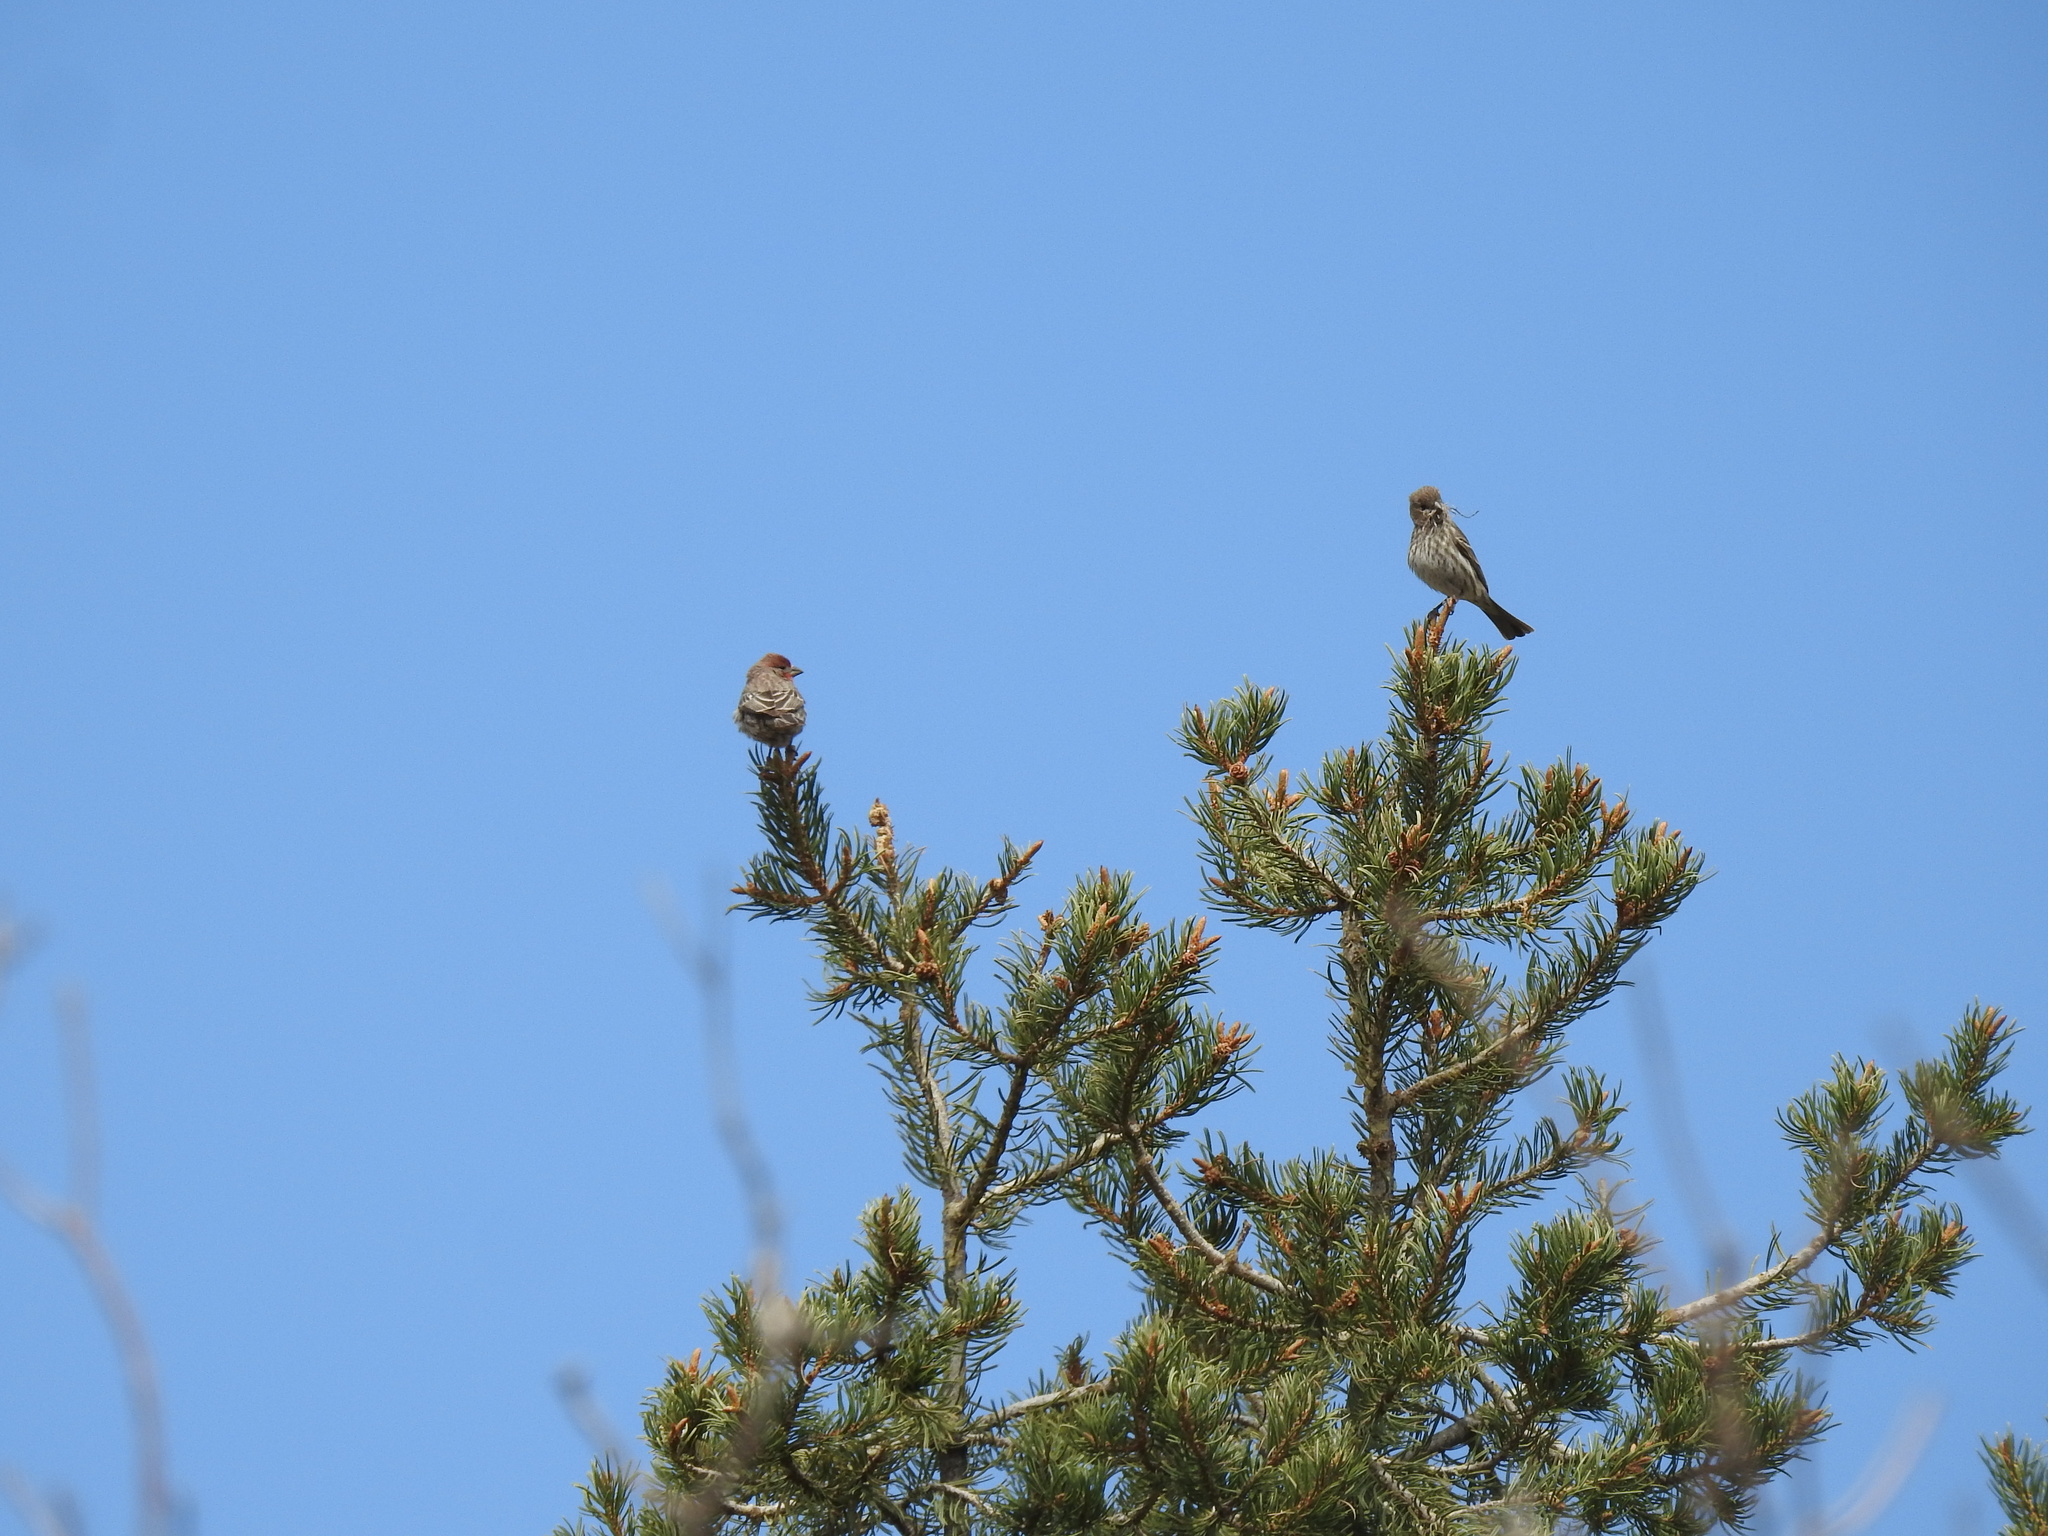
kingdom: Animalia
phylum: Chordata
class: Aves
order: Passeriformes
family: Fringillidae
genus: Haemorhous
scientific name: Haemorhous mexicanus
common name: House finch
